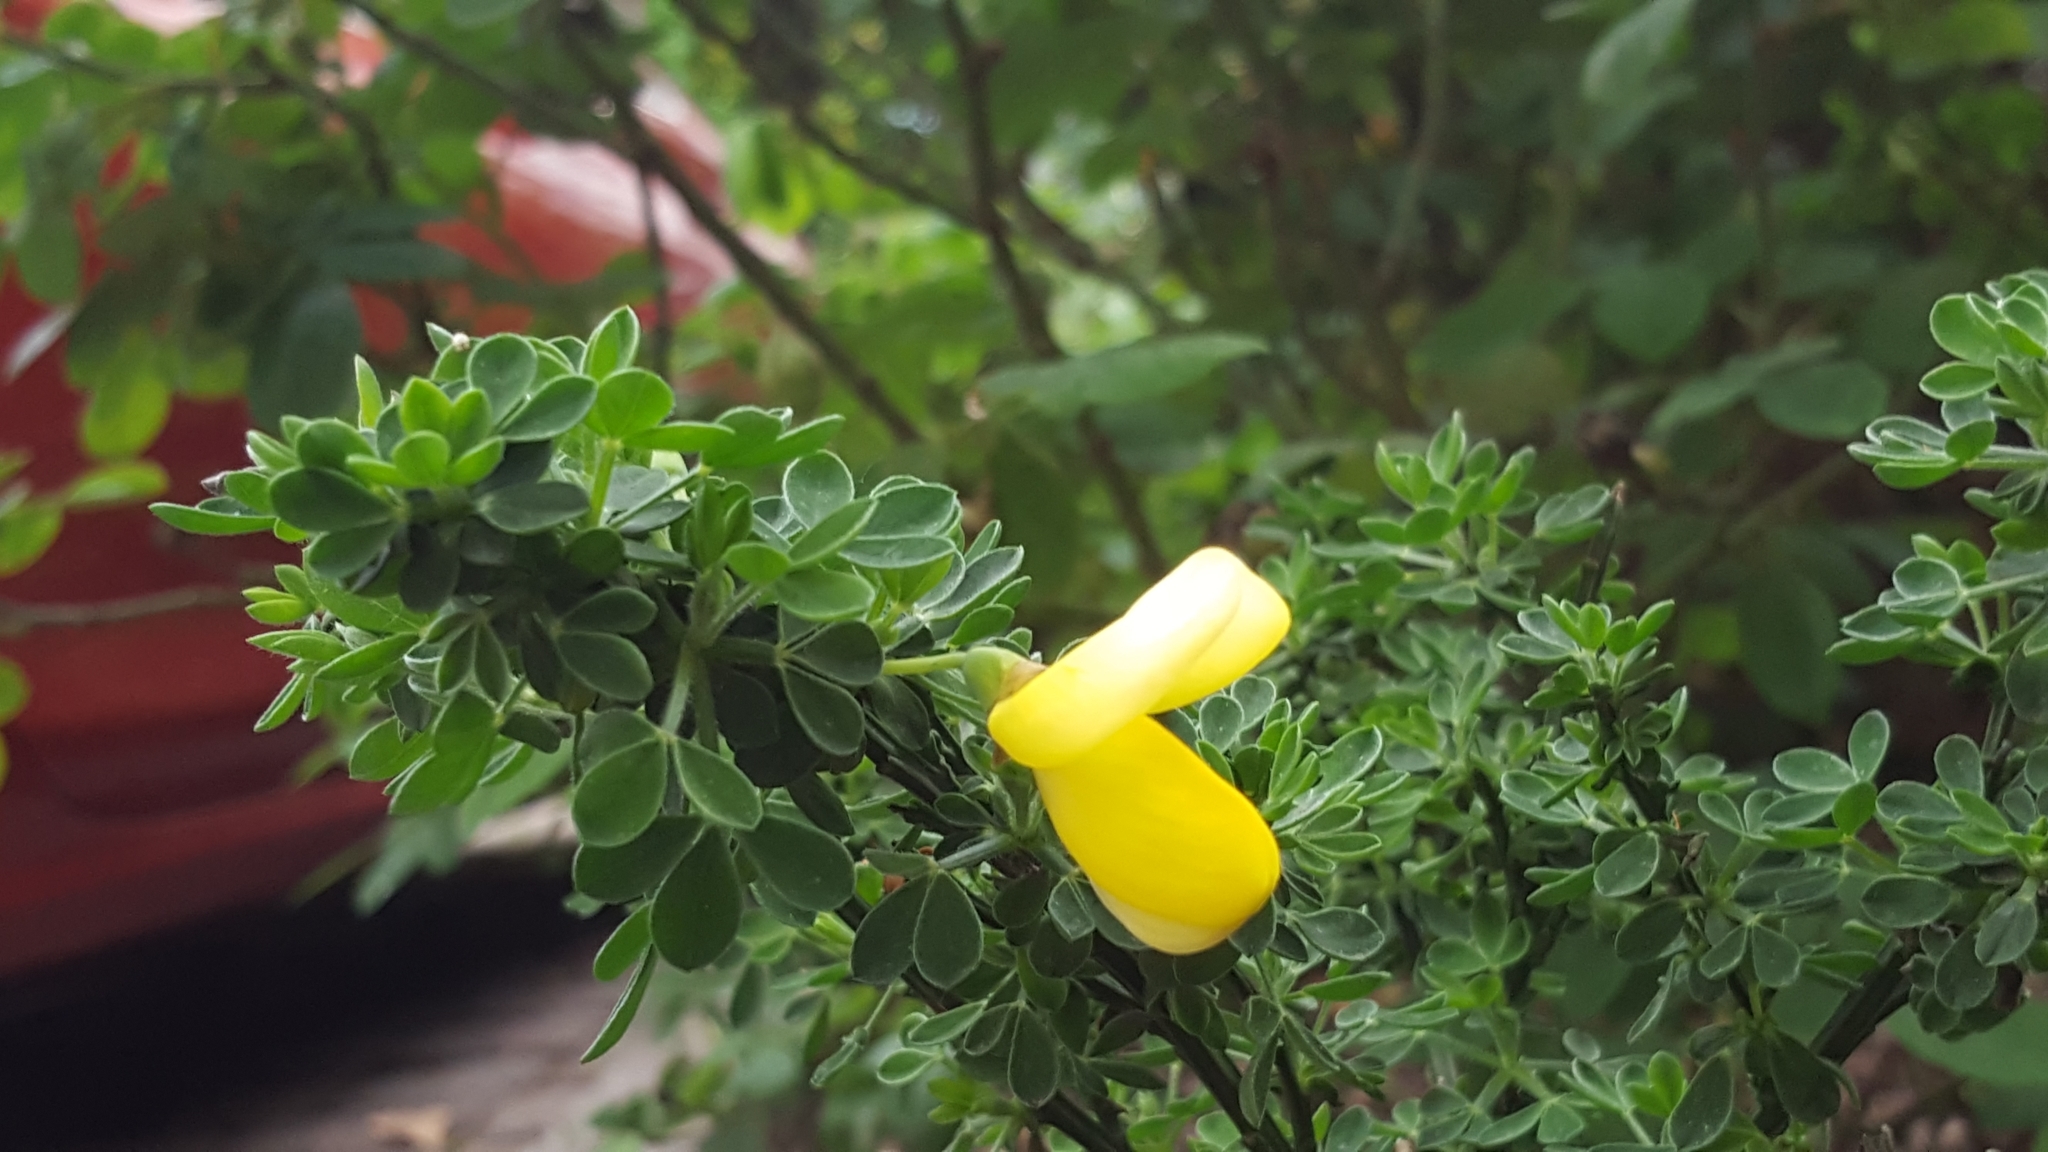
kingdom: Plantae
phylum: Tracheophyta
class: Magnoliopsida
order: Fabales
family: Fabaceae
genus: Cytisus
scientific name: Cytisus scoparius
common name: Scotch broom
